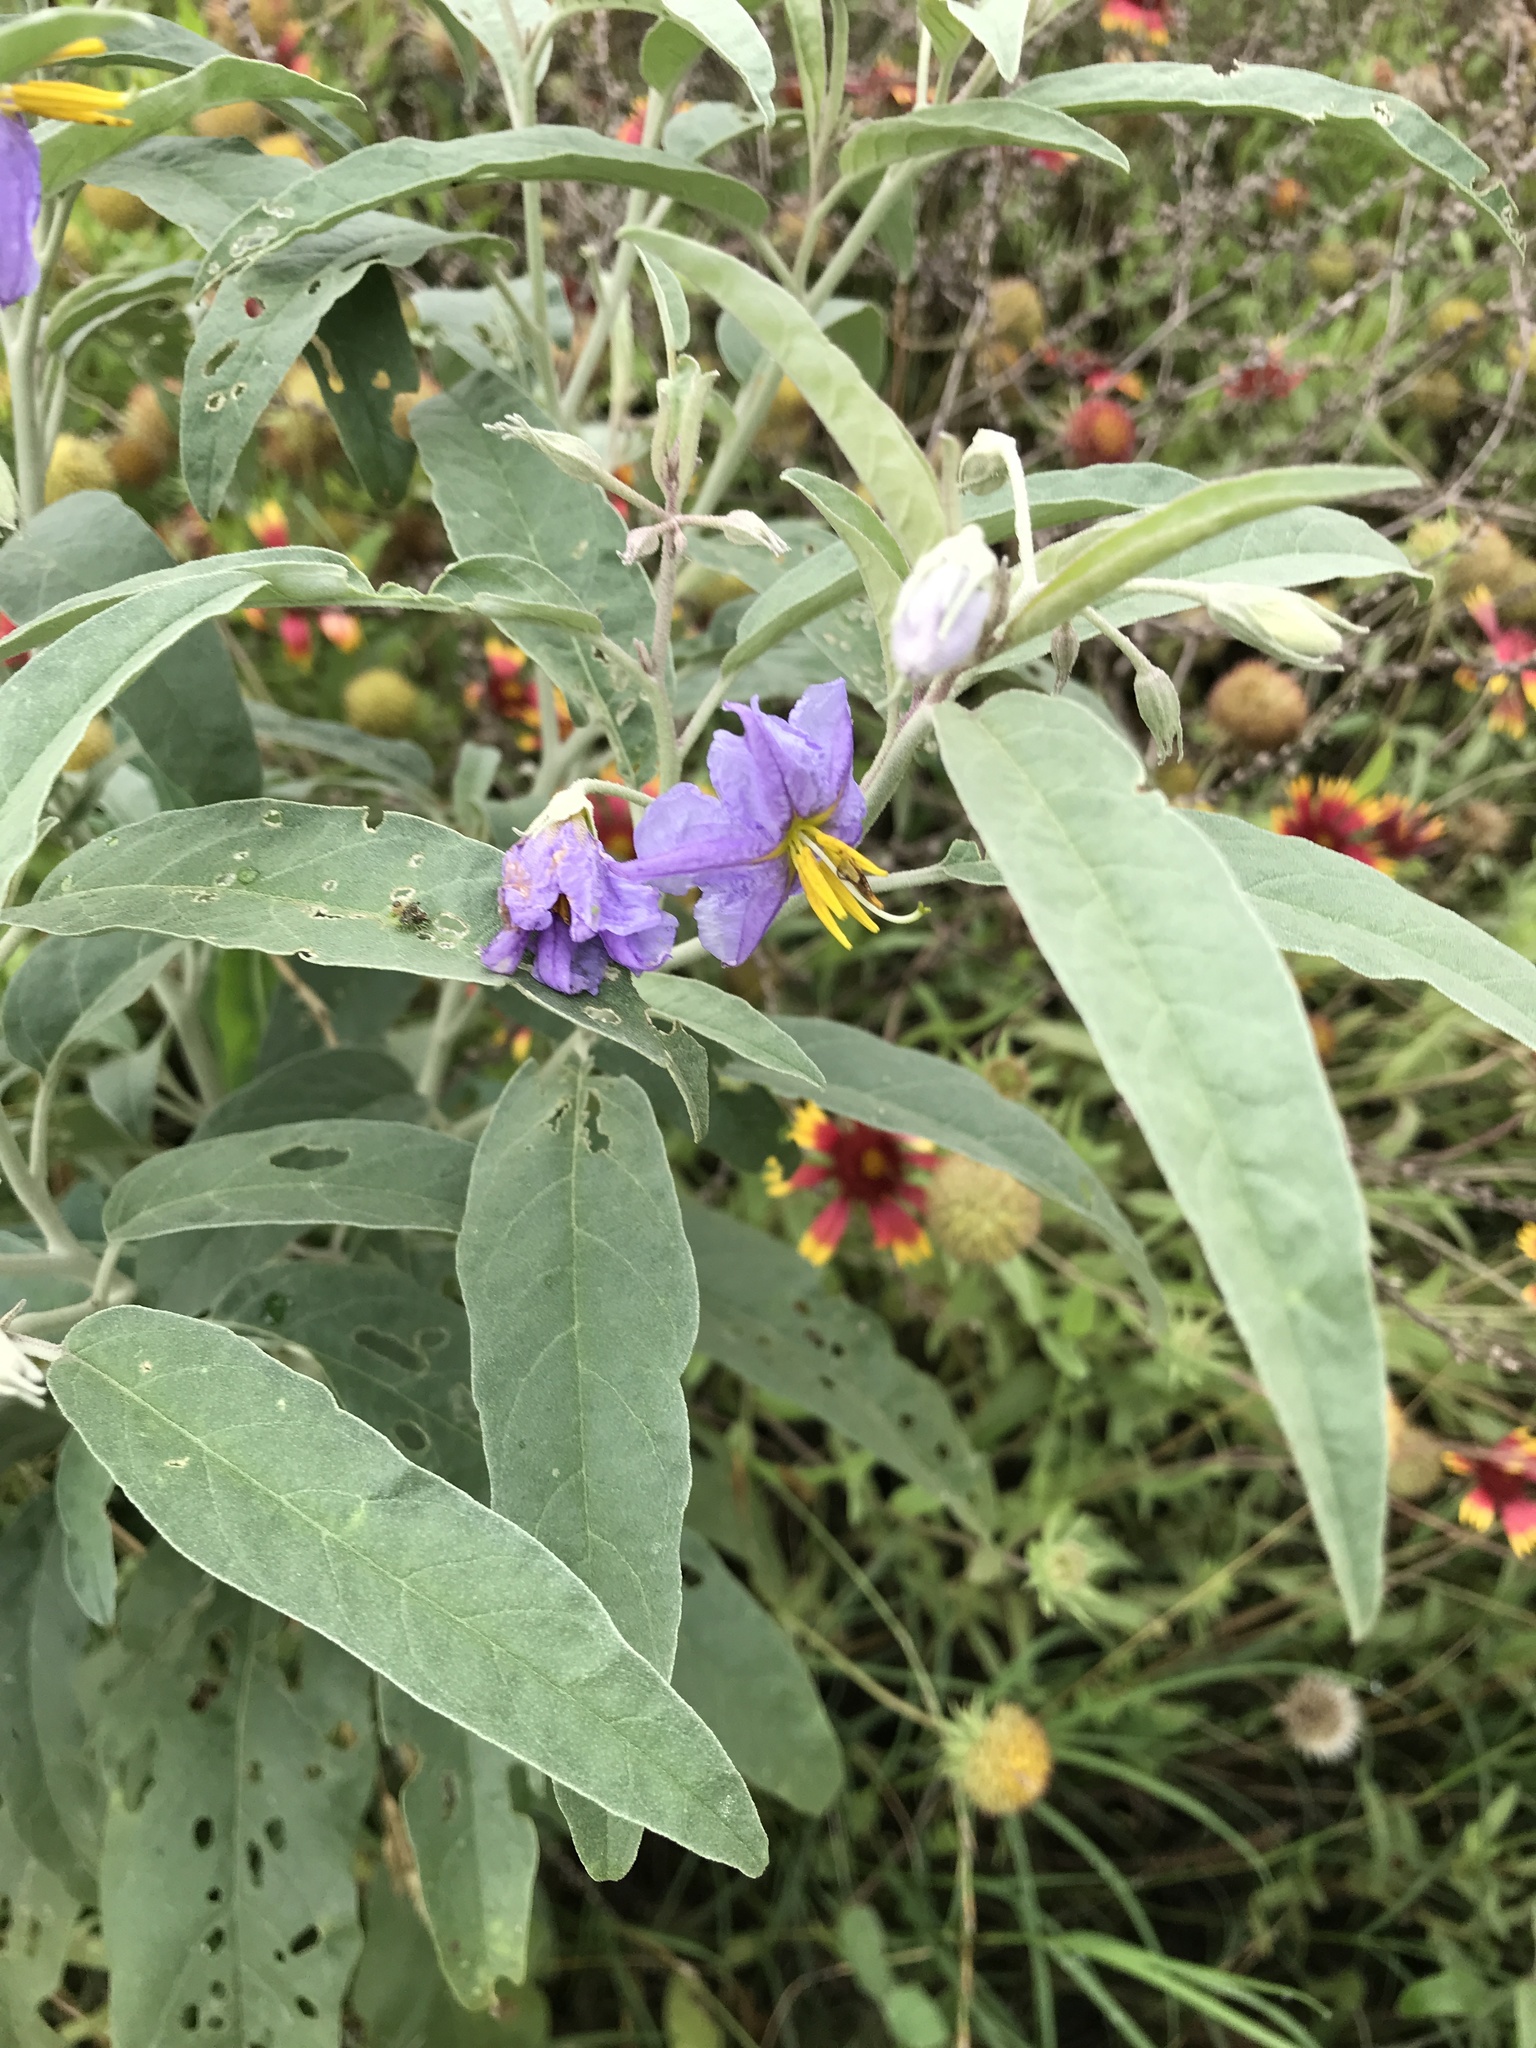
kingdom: Plantae
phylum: Tracheophyta
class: Magnoliopsida
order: Solanales
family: Solanaceae
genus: Solanum
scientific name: Solanum elaeagnifolium
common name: Silverleaf nightshade
